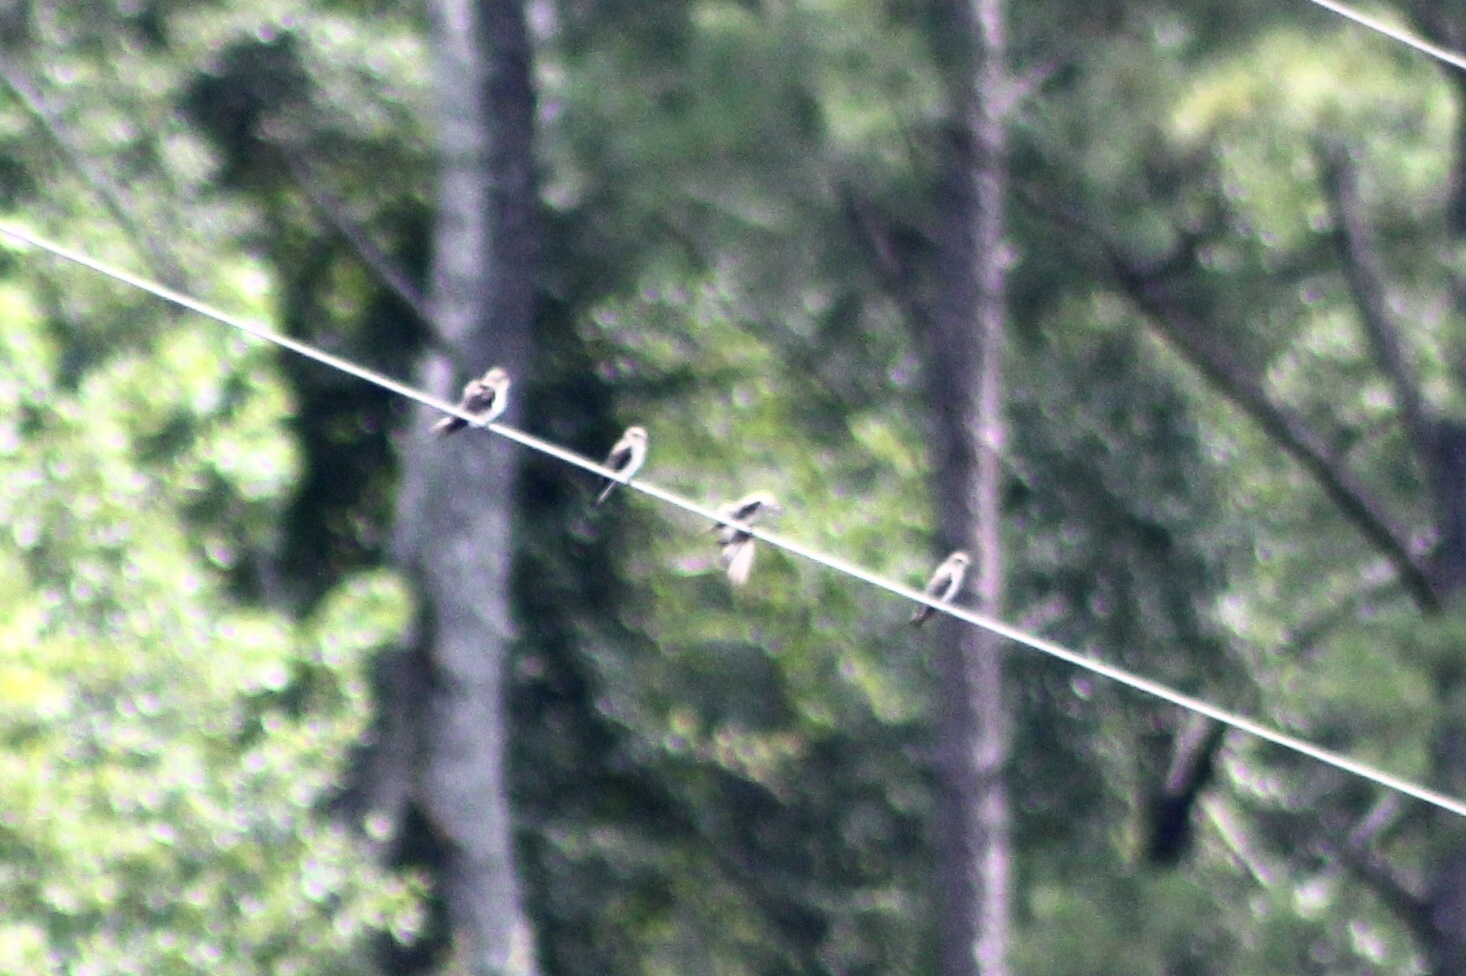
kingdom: Animalia
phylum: Chordata
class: Aves
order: Passeriformes
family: Hirundinidae
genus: Stelgidopteryx
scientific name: Stelgidopteryx serripennis
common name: Northern rough-winged swallow
